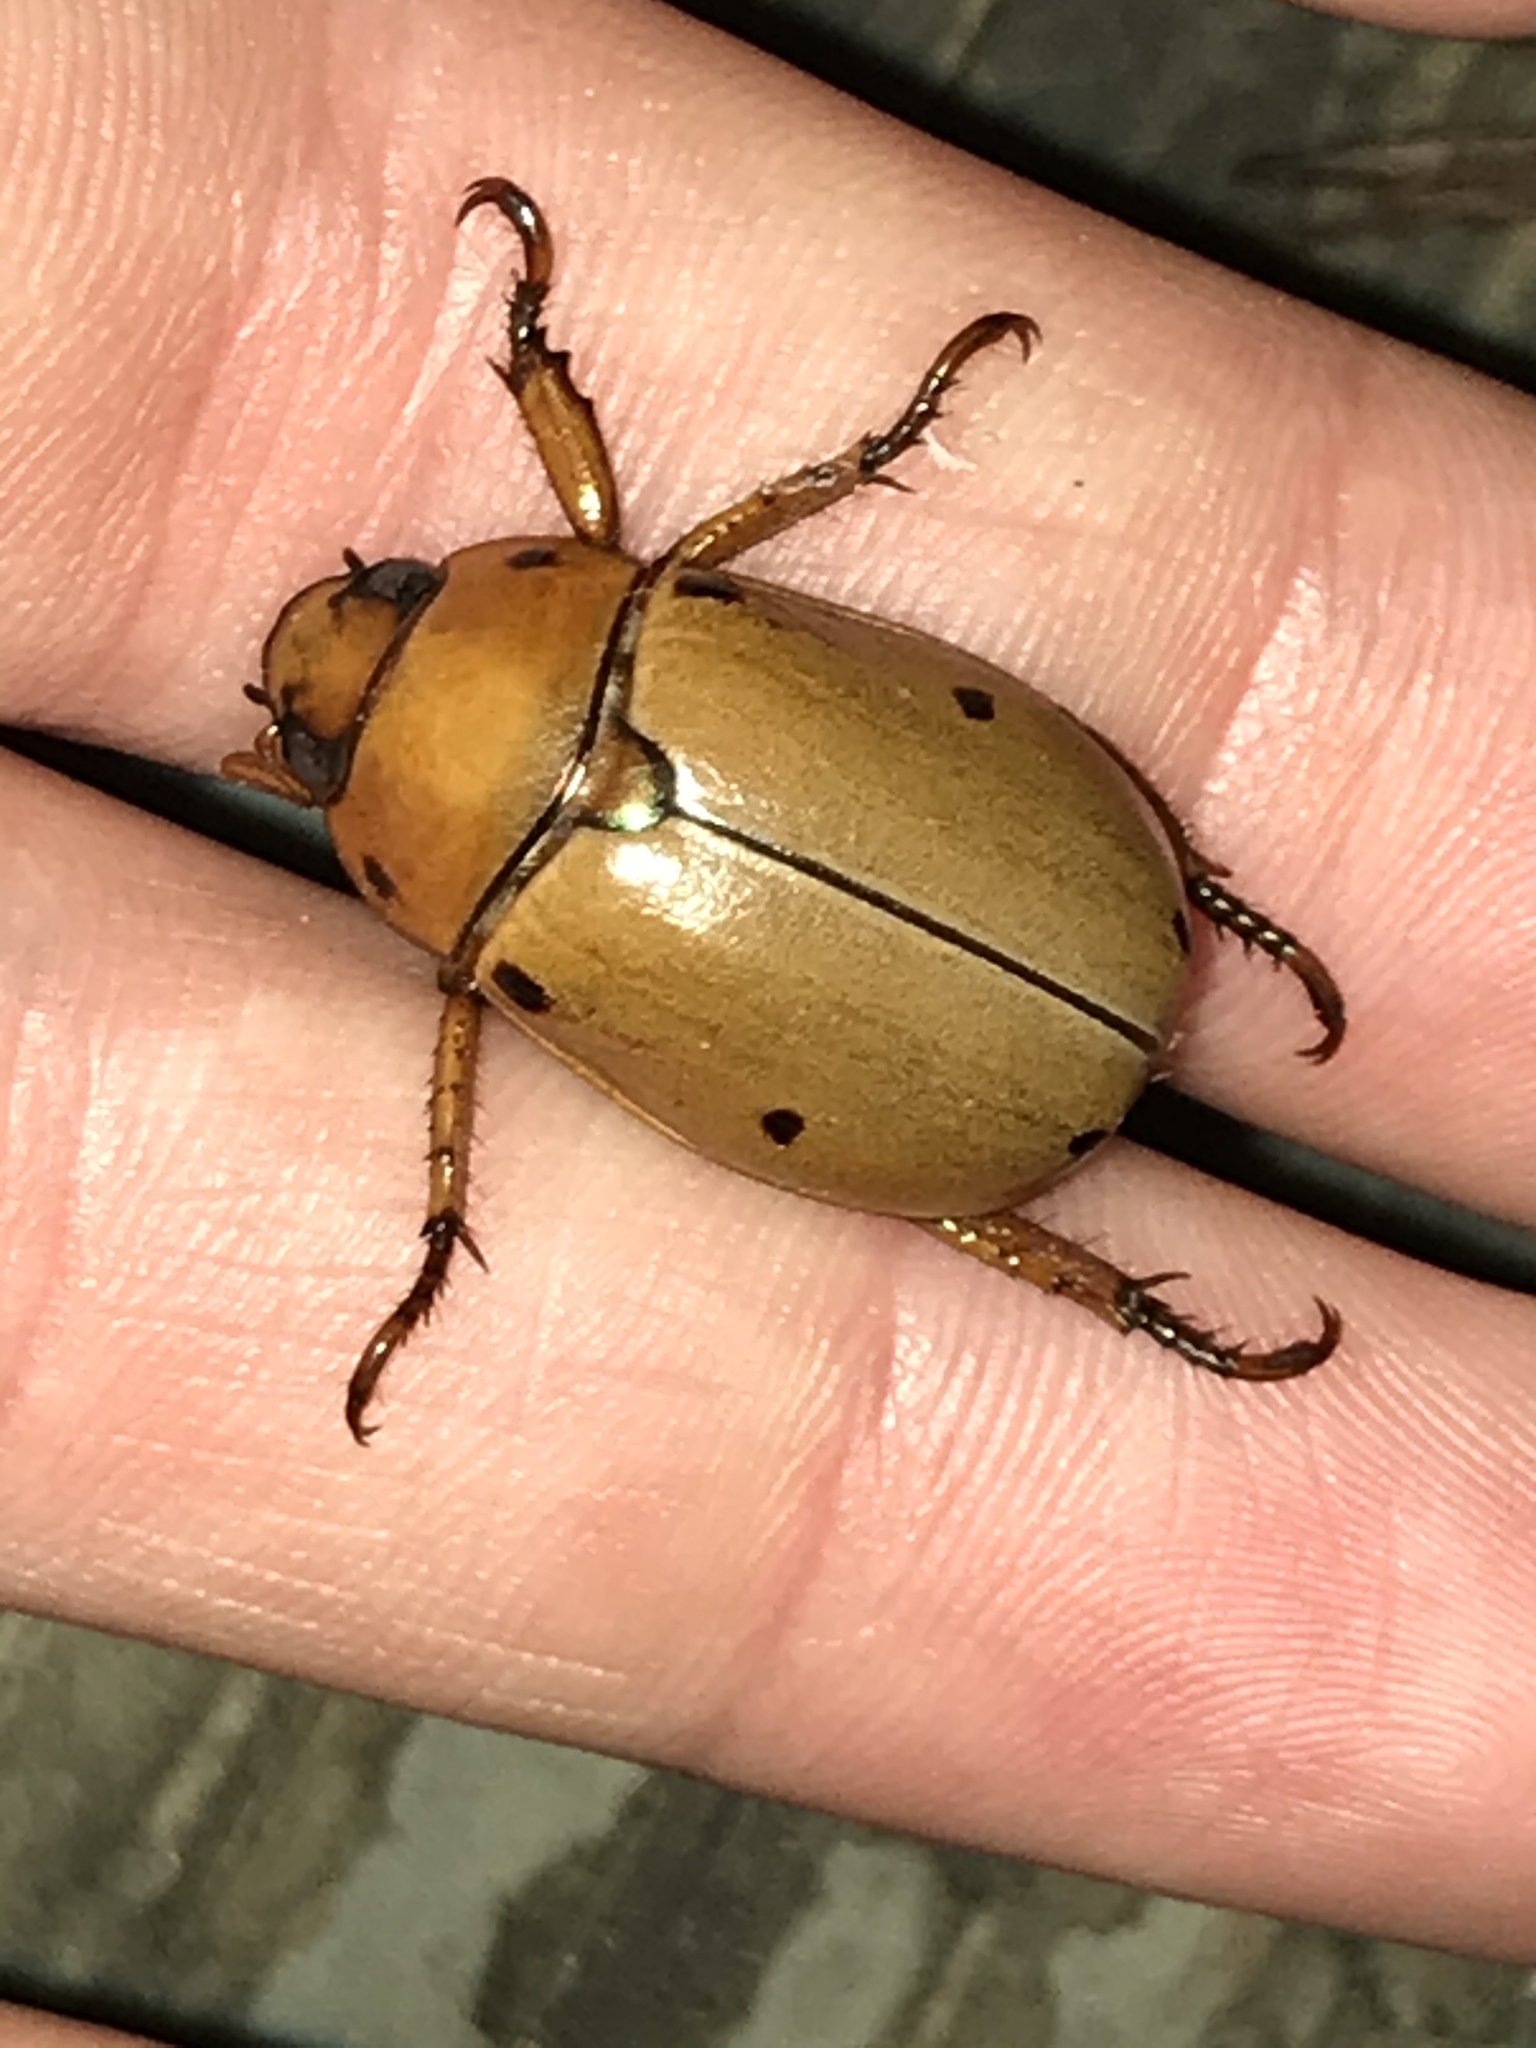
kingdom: Animalia
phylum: Arthropoda
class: Insecta
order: Coleoptera
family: Scarabaeidae
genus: Pelidnota
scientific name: Pelidnota punctata
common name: Grapevine beetle
